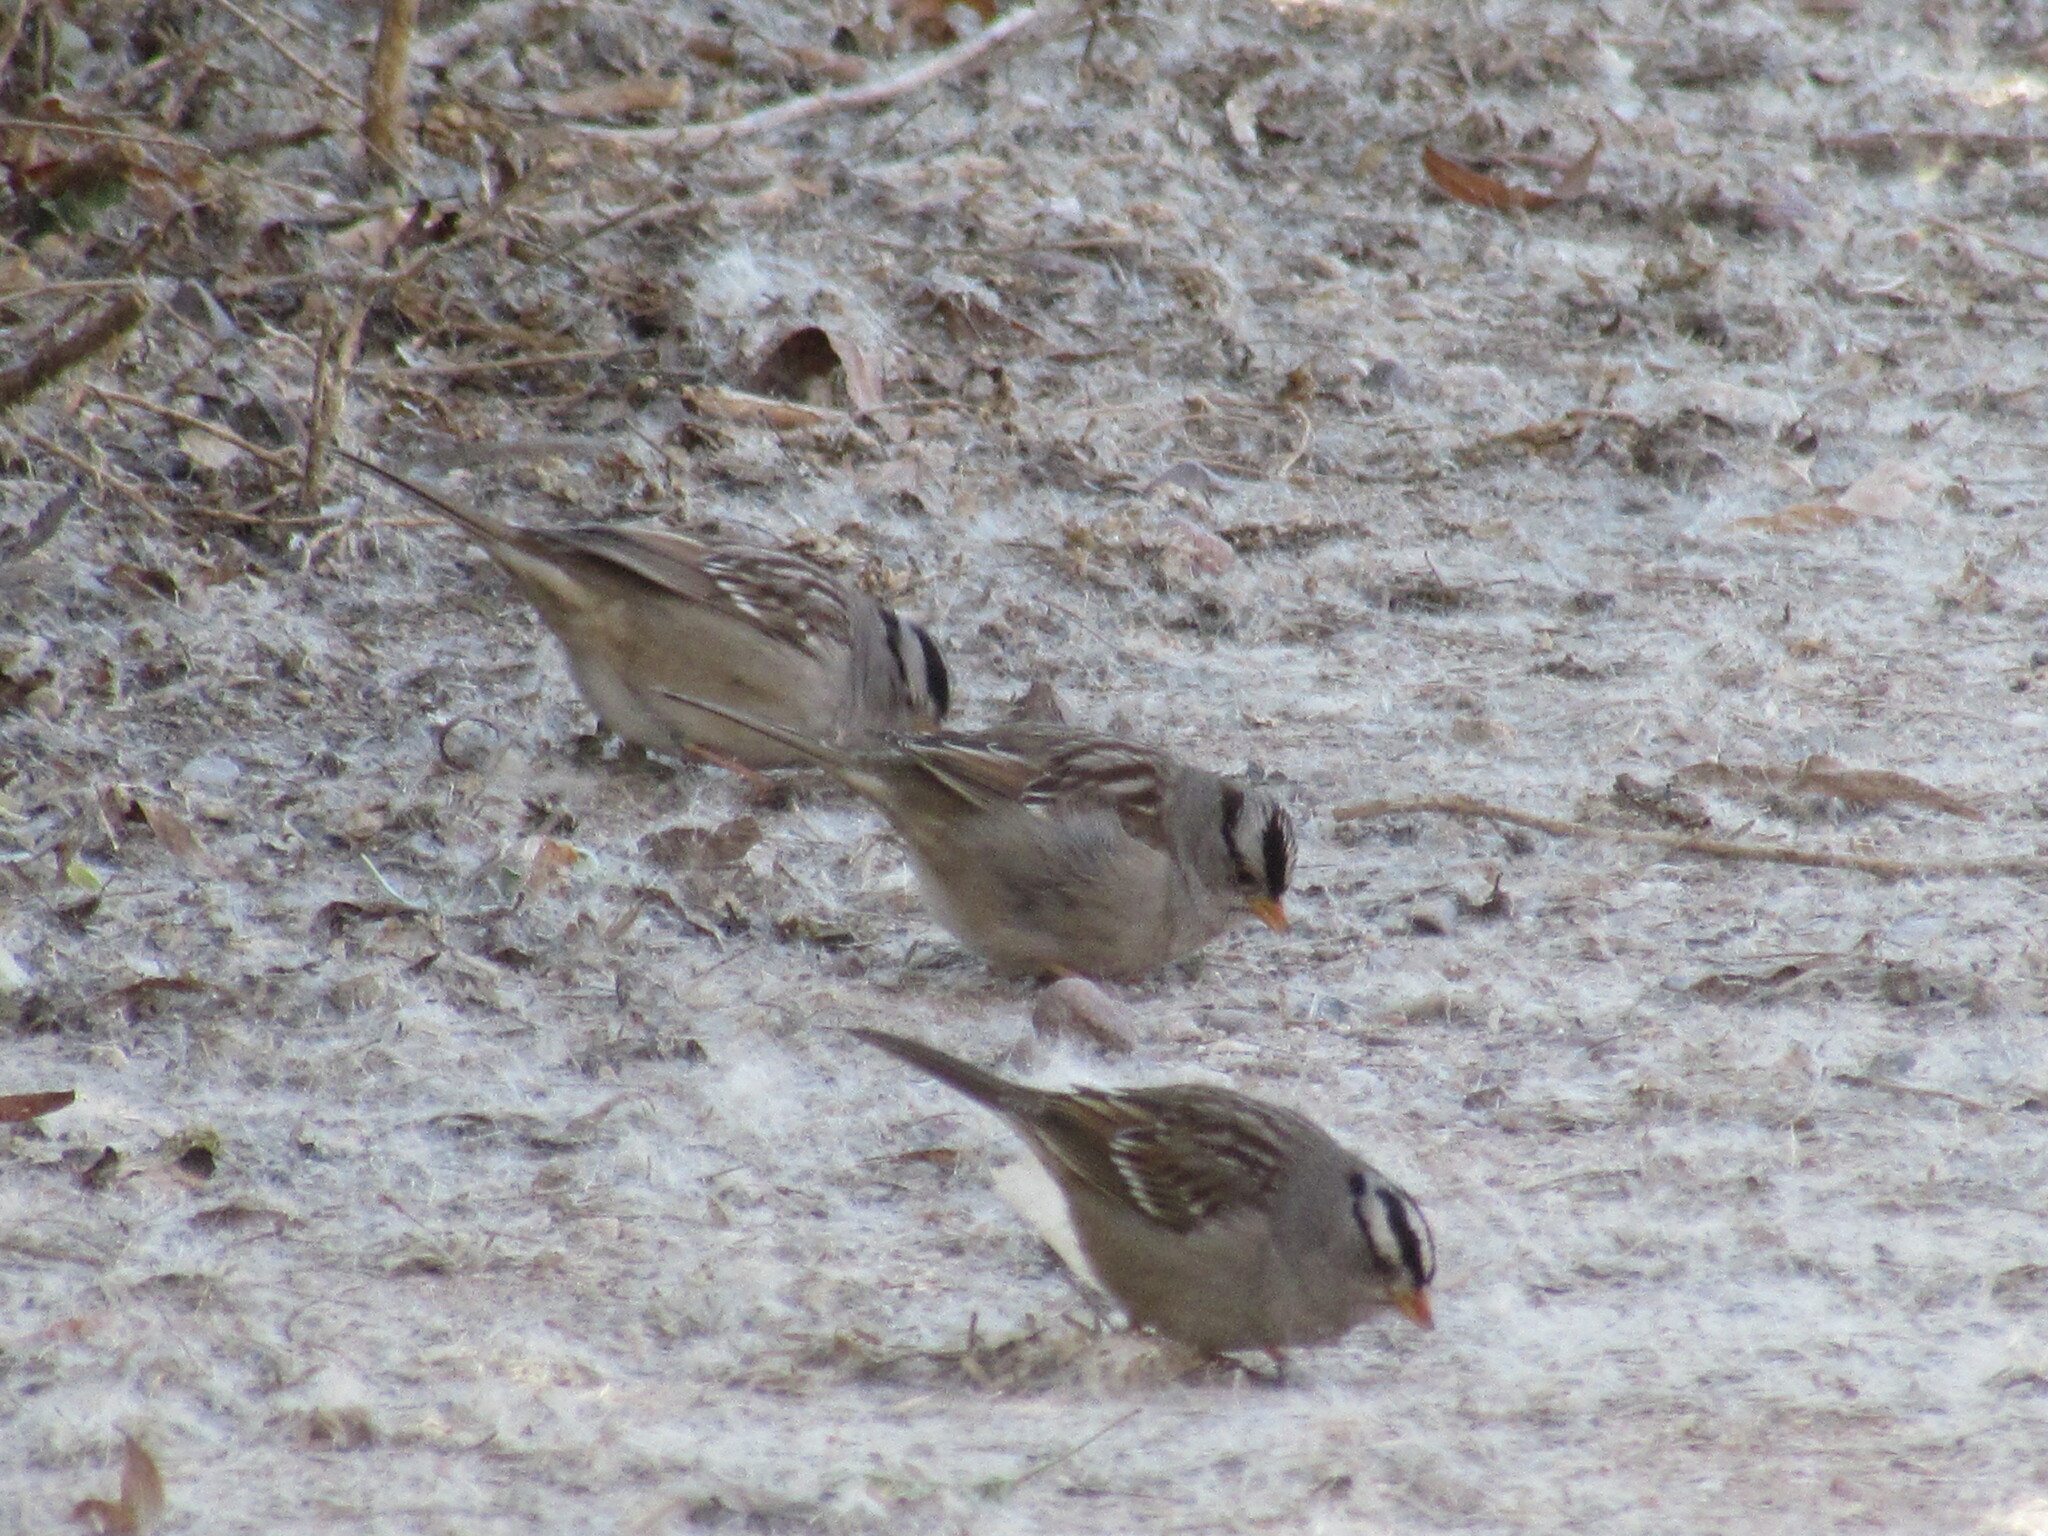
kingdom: Animalia
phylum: Chordata
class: Aves
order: Passeriformes
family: Passerellidae
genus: Zonotrichia
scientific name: Zonotrichia leucophrys
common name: White-crowned sparrow
